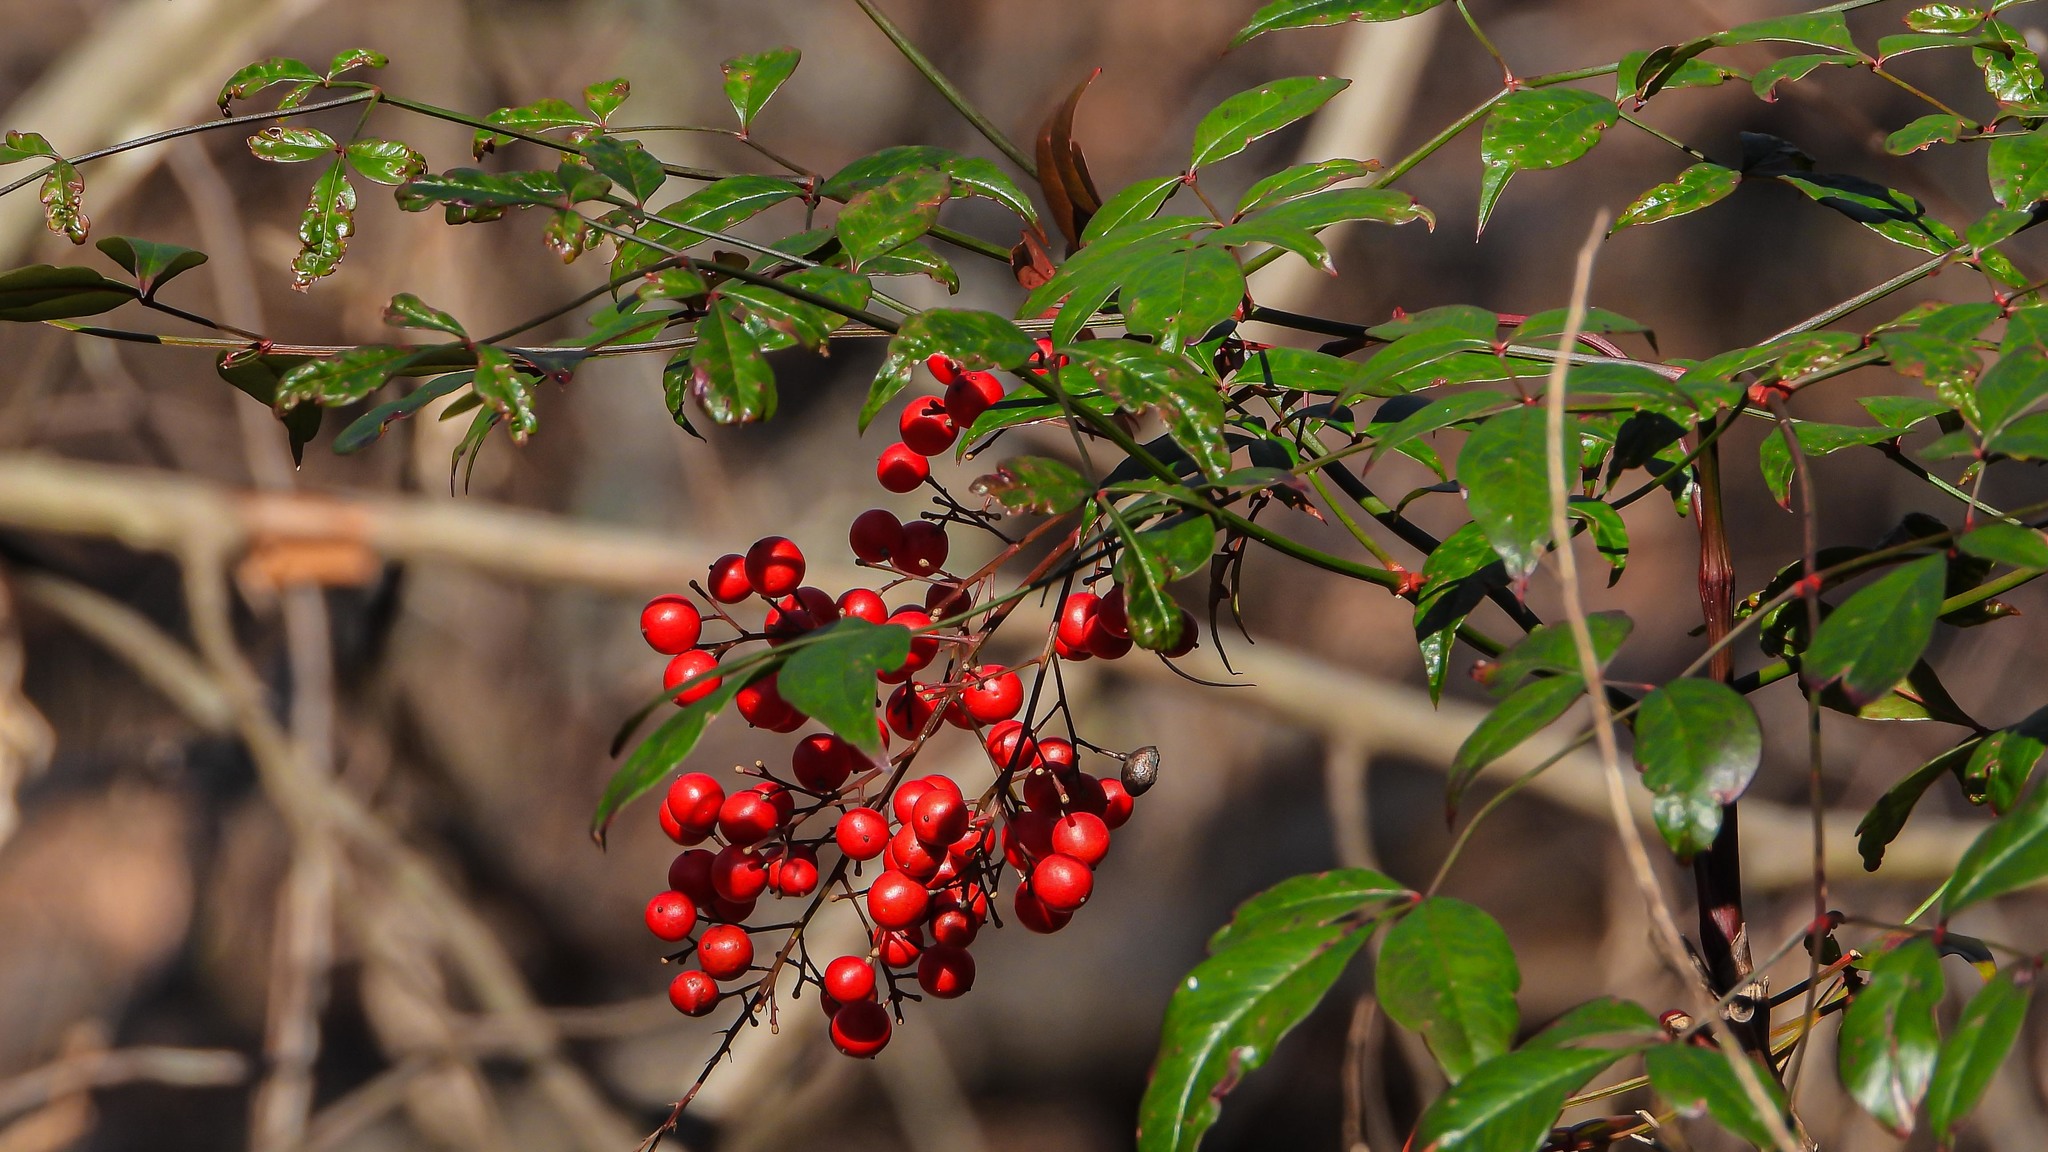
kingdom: Plantae
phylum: Tracheophyta
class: Magnoliopsida
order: Ranunculales
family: Berberidaceae
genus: Nandina
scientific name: Nandina domestica
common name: Sacred bamboo
